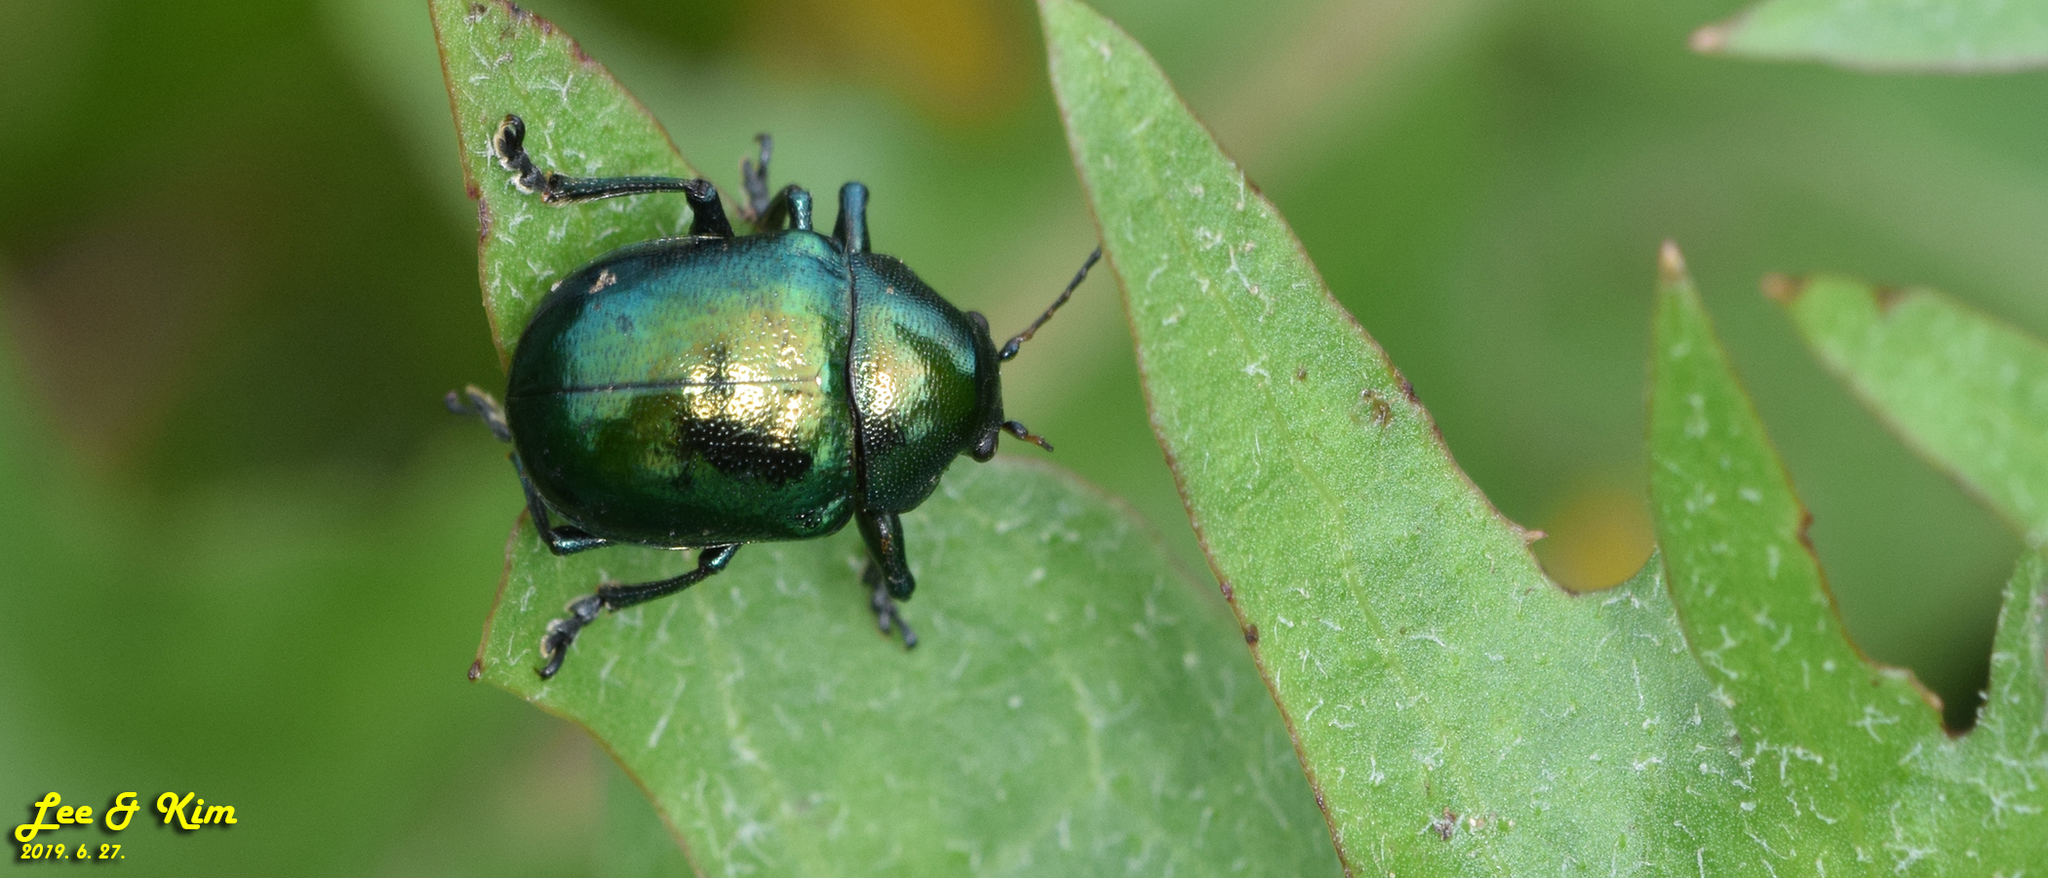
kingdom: Animalia
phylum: Arthropoda
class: Insecta
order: Coleoptera
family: Chrysomelidae
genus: Colasposoma
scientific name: Colasposoma dauricum
